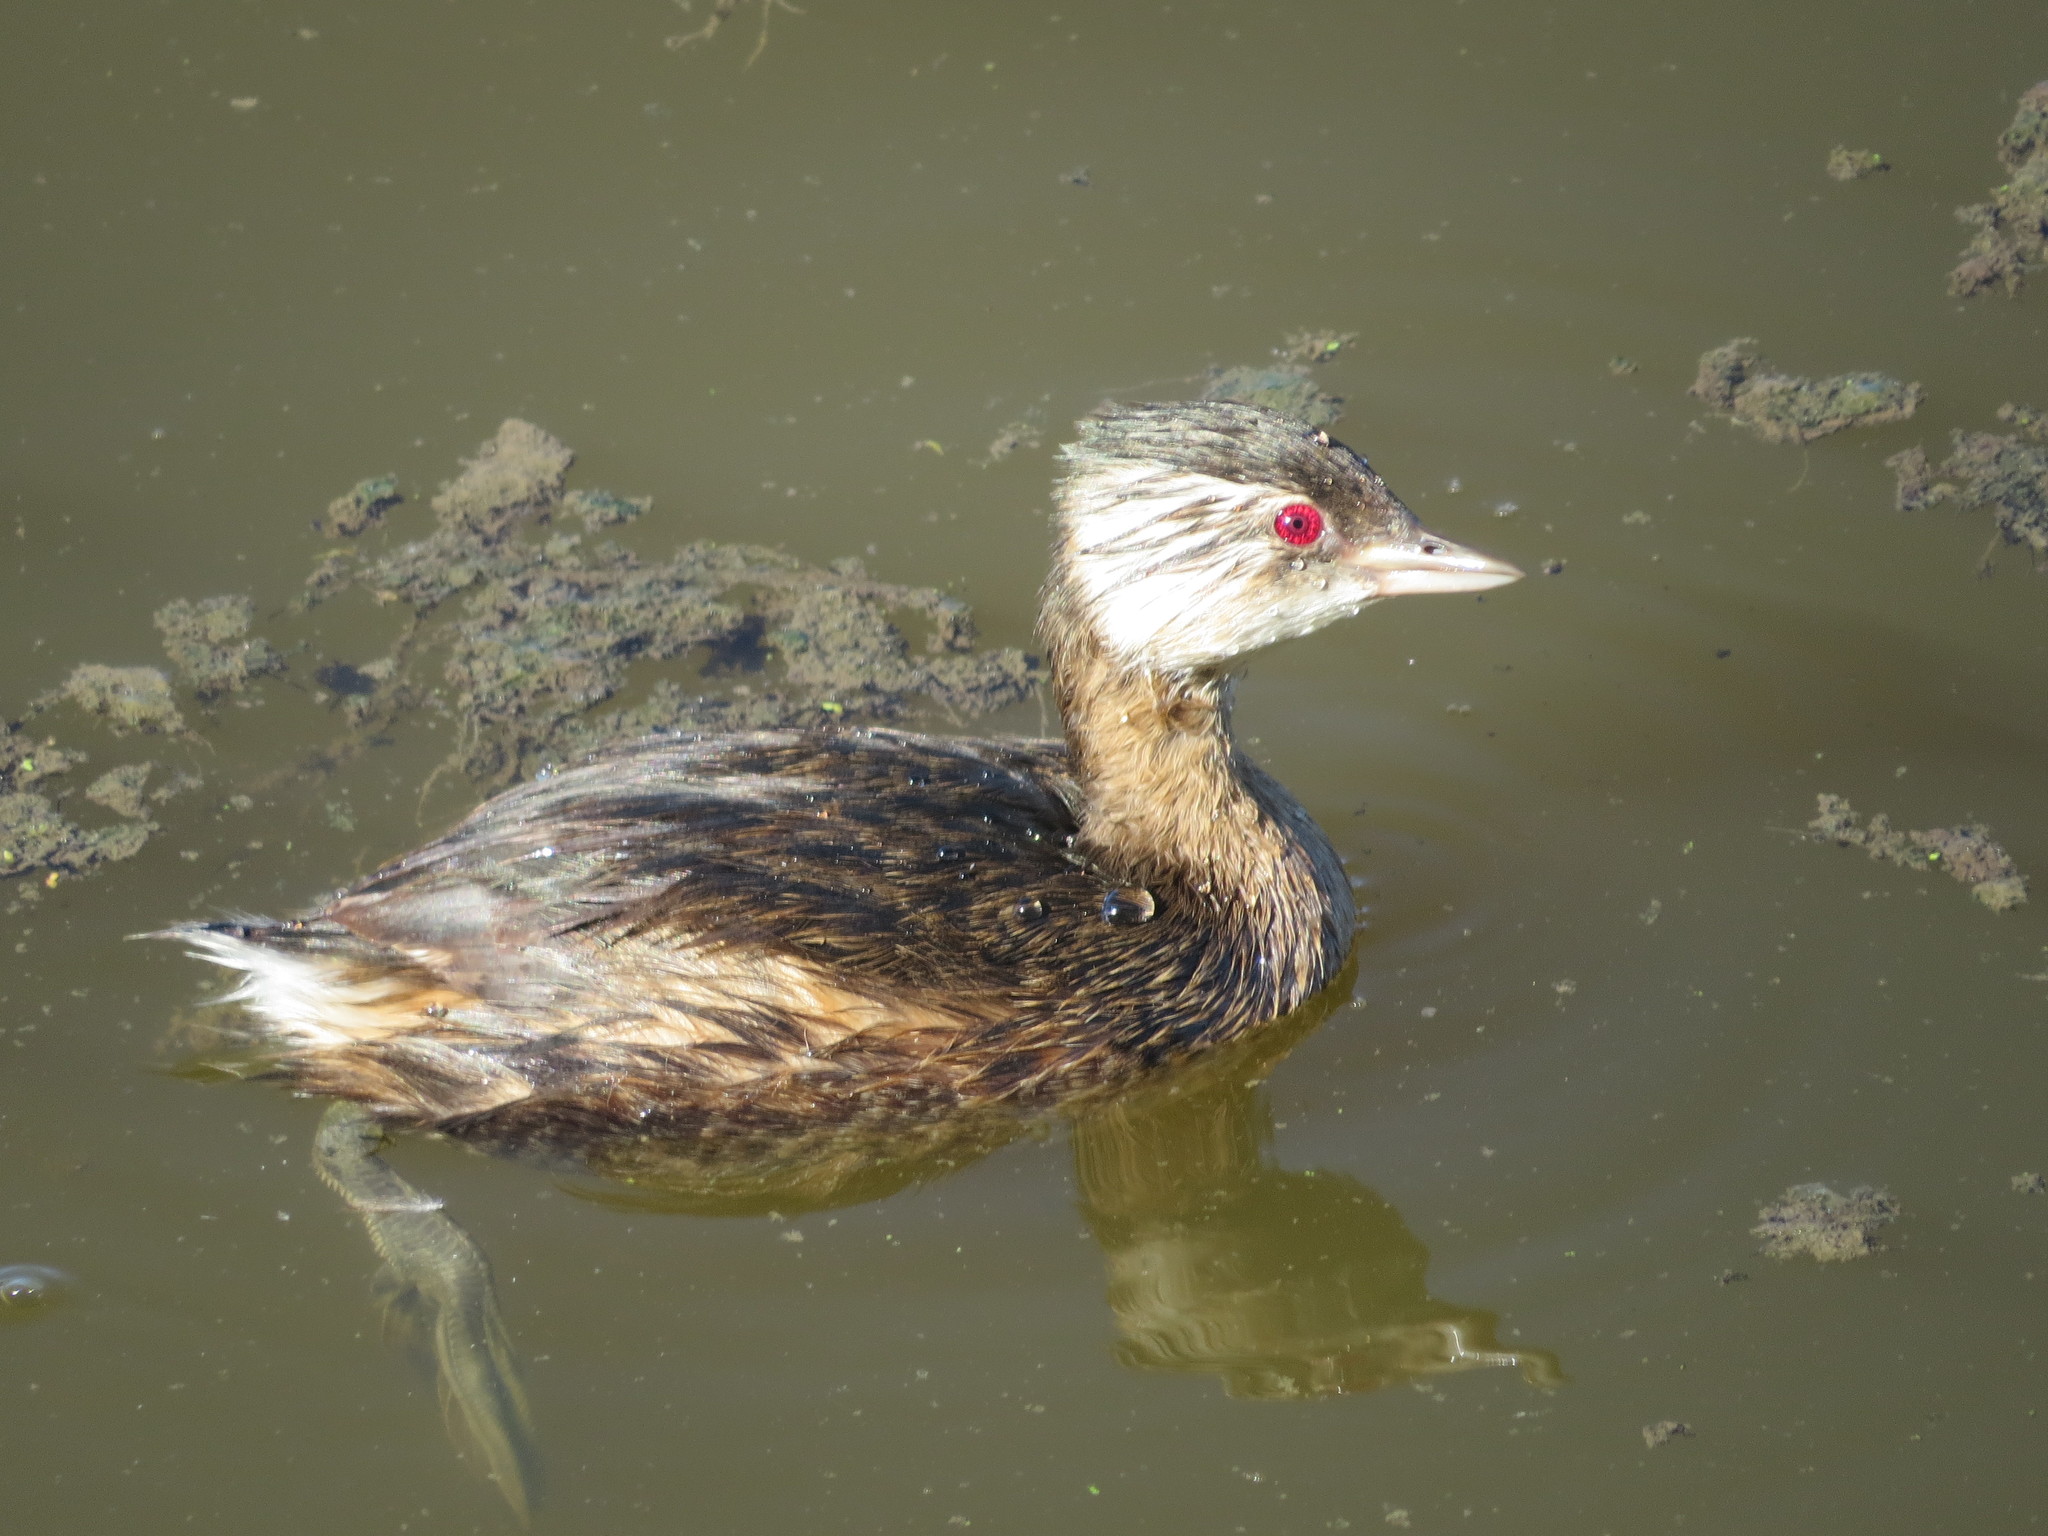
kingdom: Animalia
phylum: Chordata
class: Aves
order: Podicipediformes
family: Podicipedidae
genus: Rollandia
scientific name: Rollandia rolland
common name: White-tufted grebe
